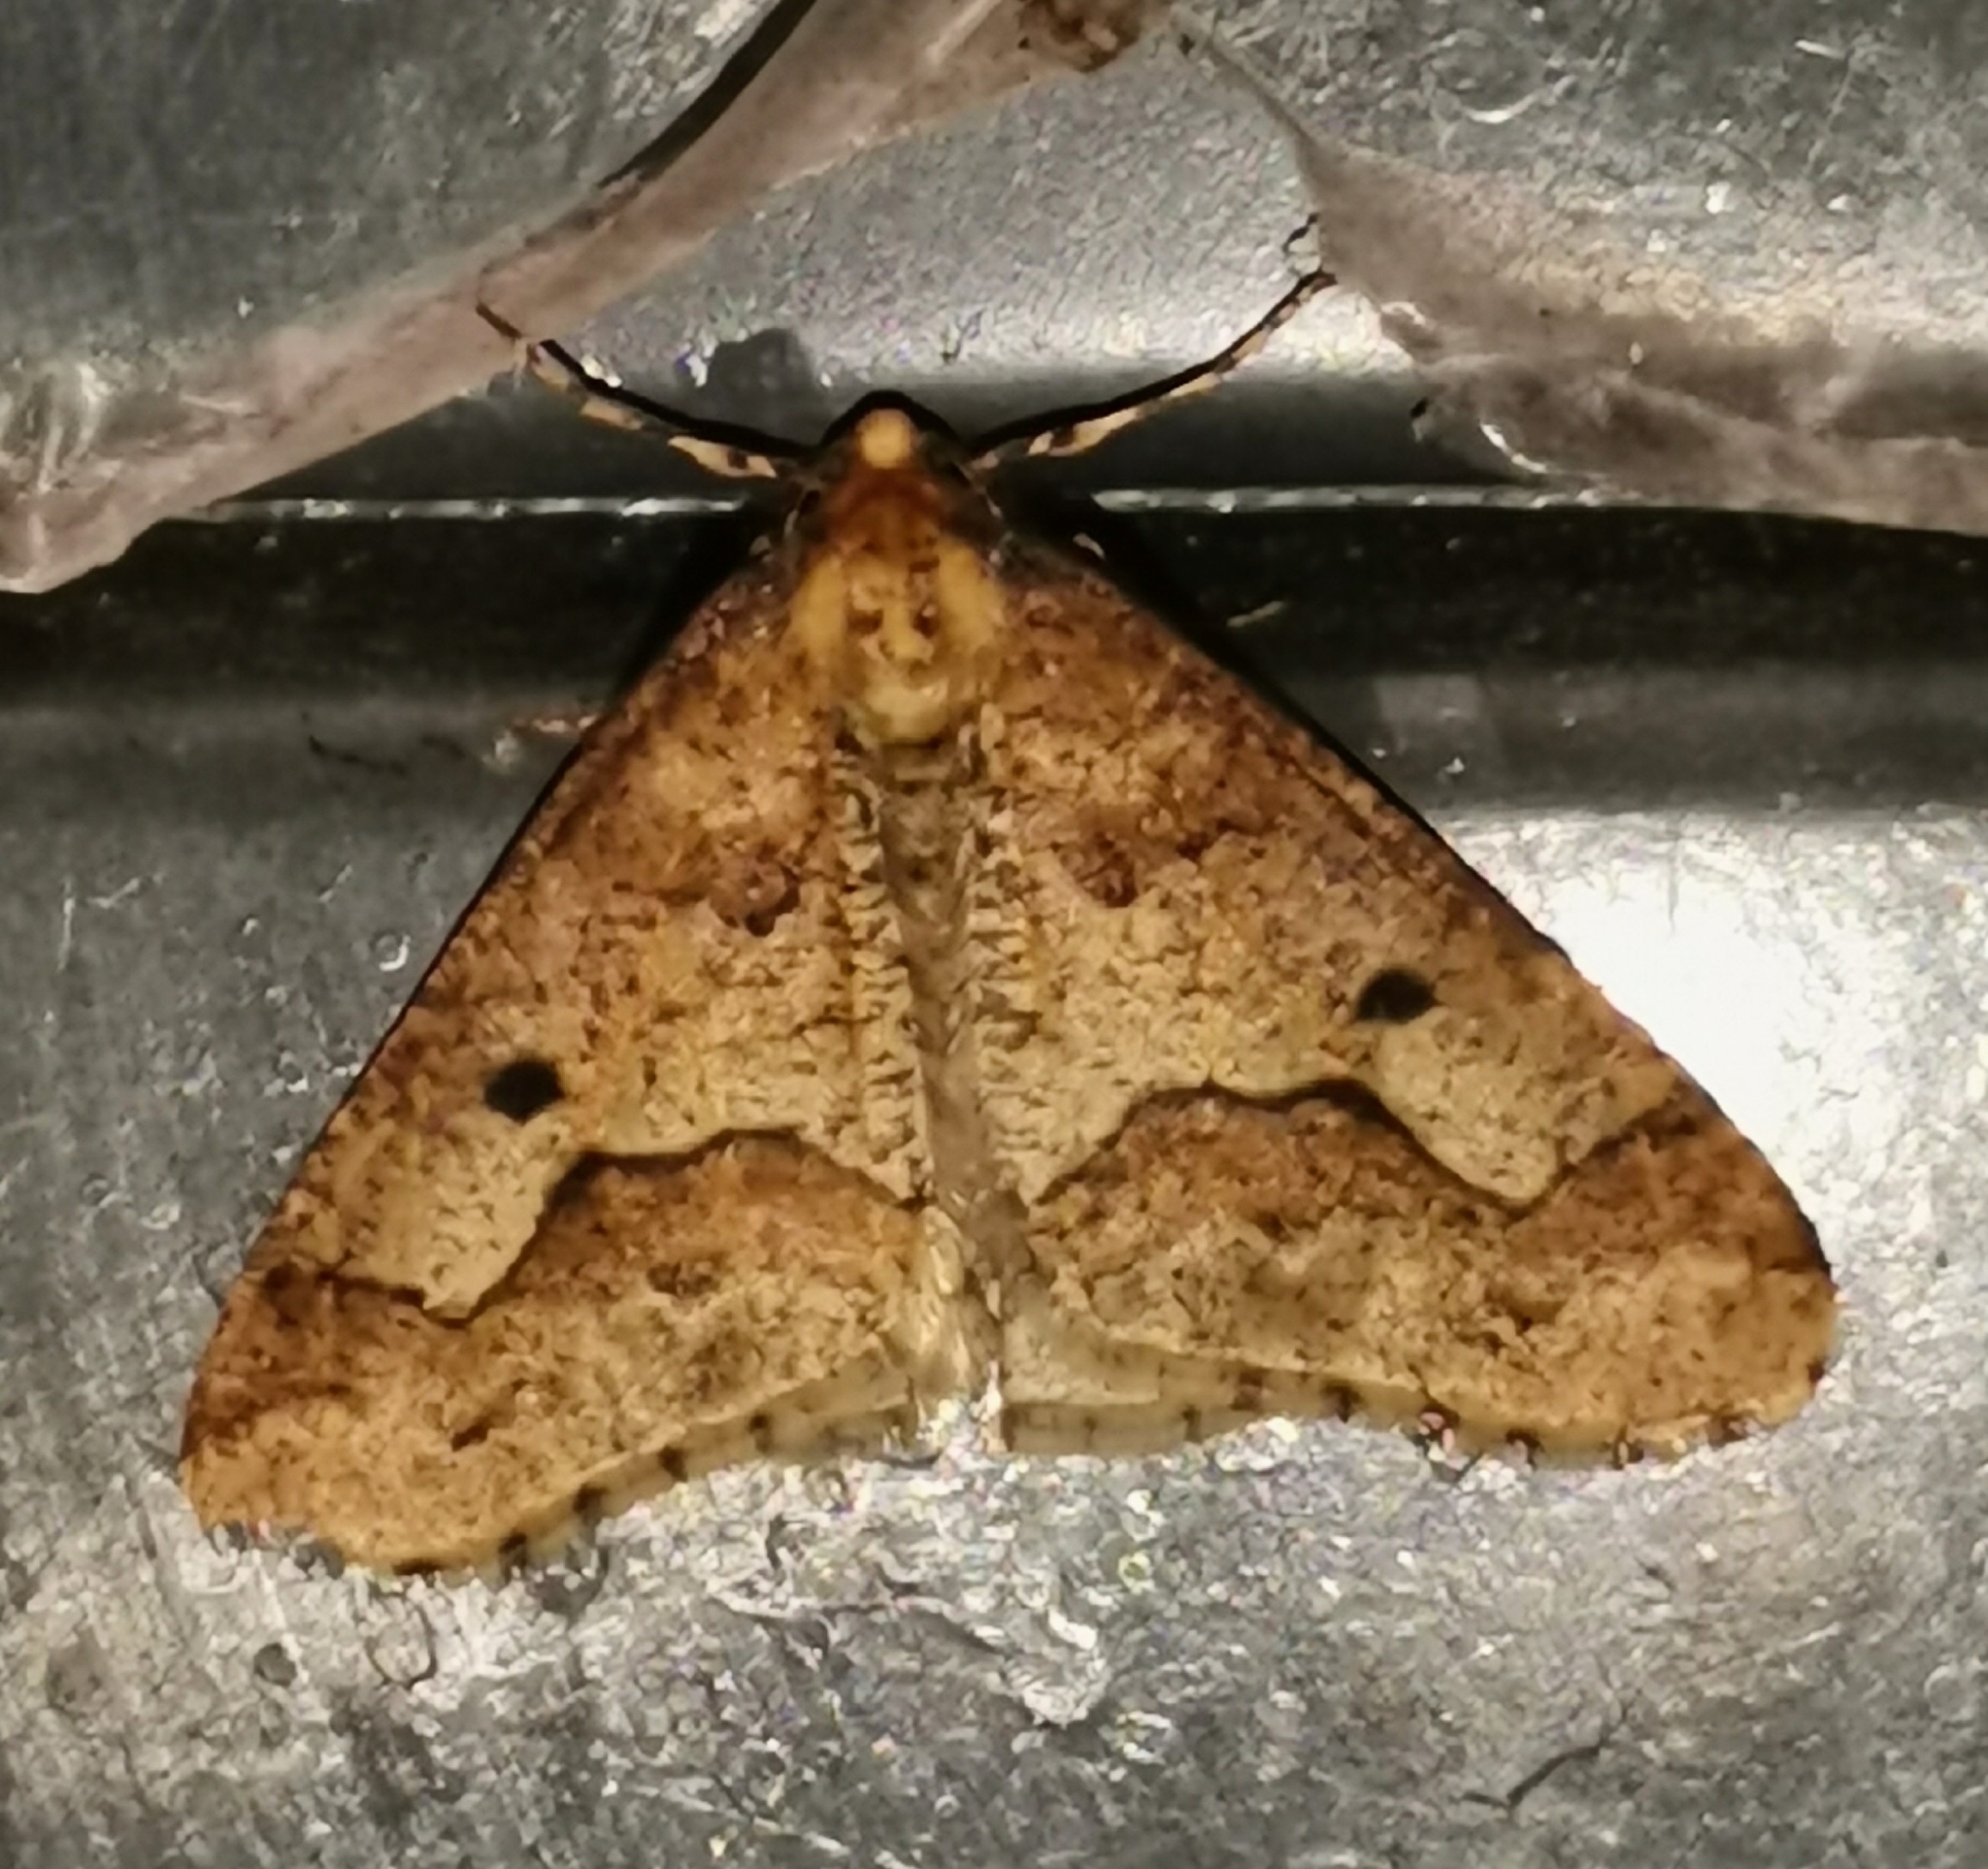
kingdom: Animalia
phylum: Arthropoda
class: Insecta
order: Lepidoptera
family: Geometridae
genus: Erannis
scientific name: Erannis defoliaria
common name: Mottled umber
